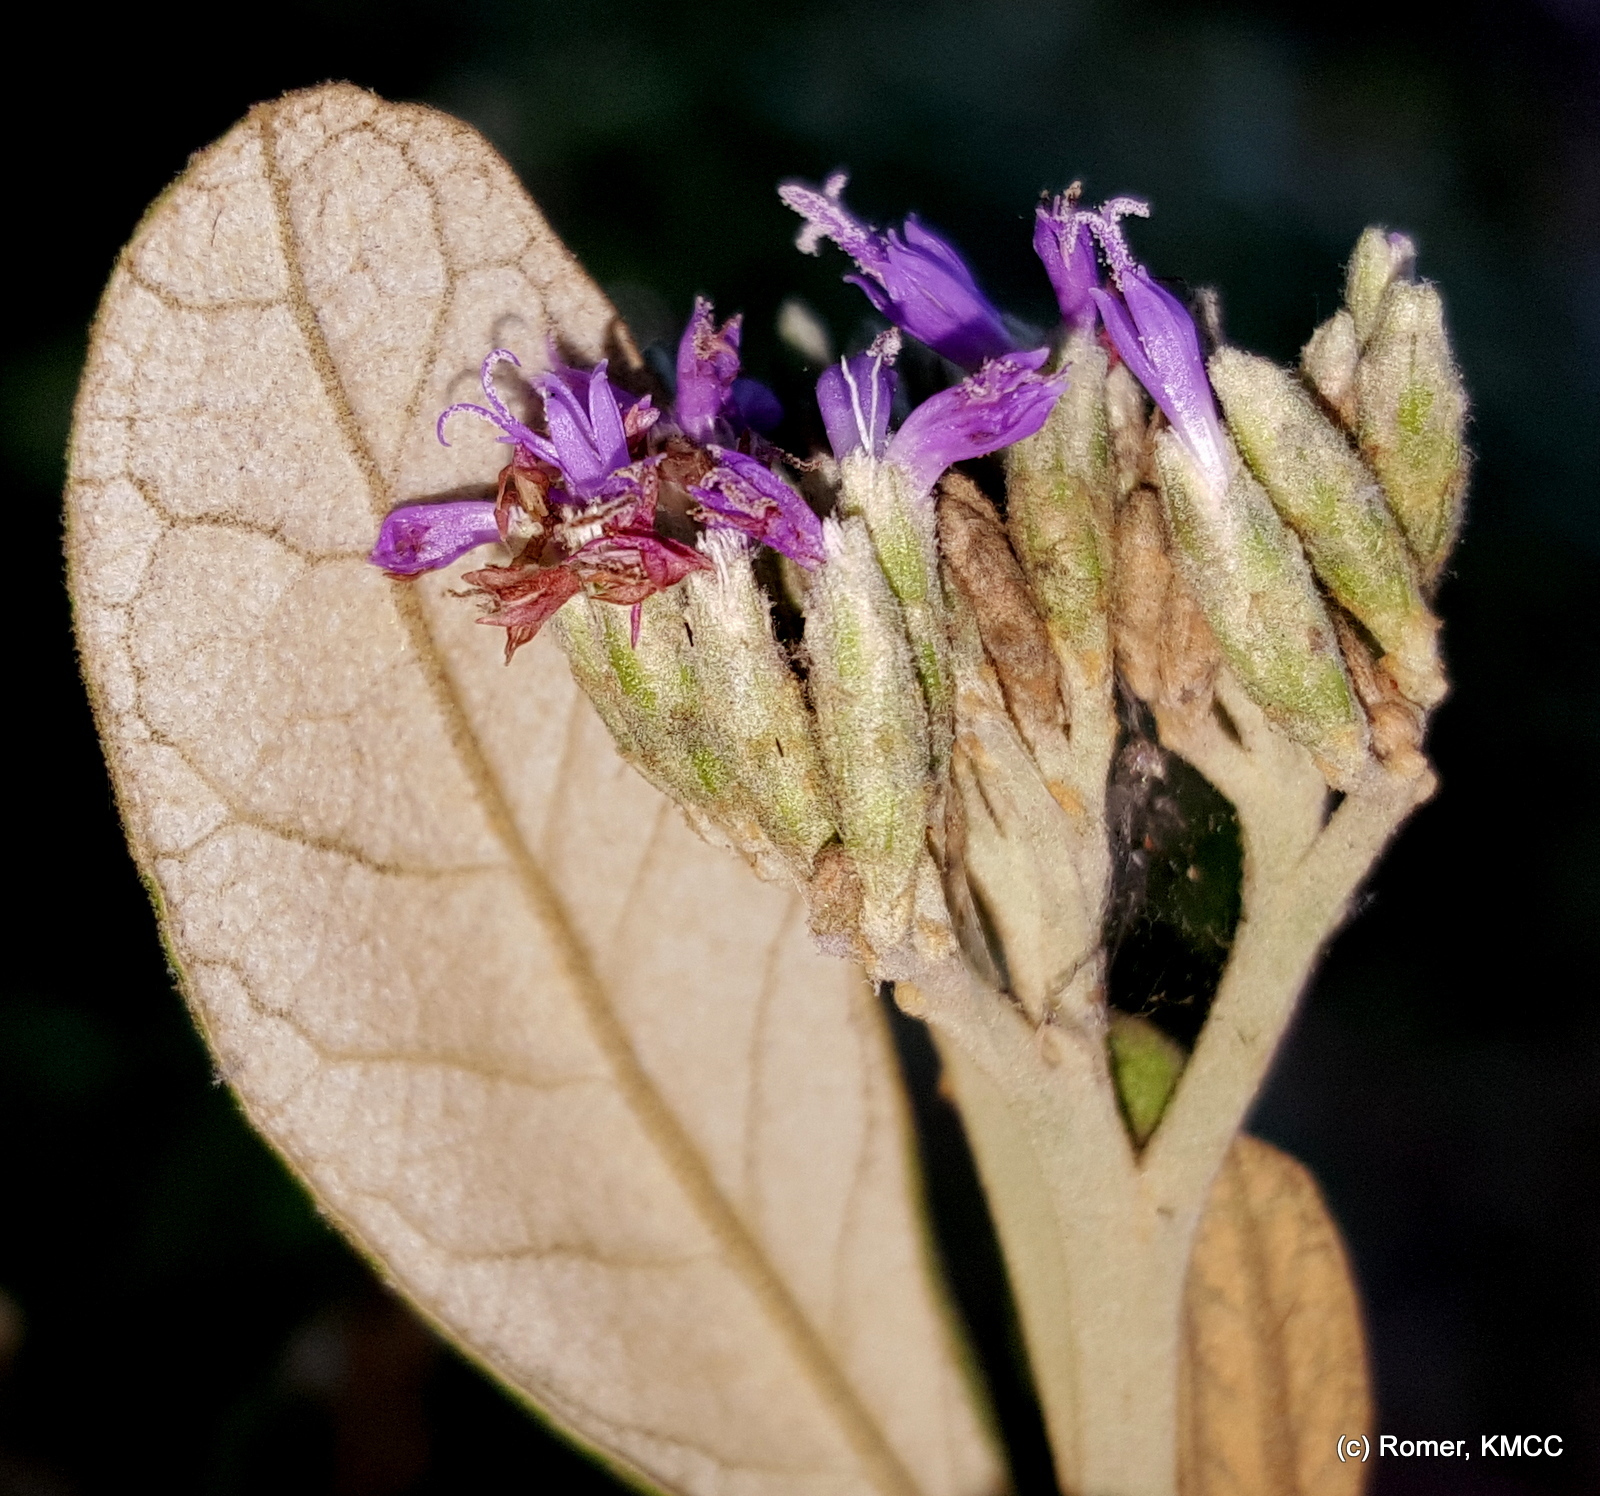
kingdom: Plantae
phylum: Tracheophyta
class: Magnoliopsida
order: Asterales
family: Asteraceae
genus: Piptocoma
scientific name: Piptocoma vernonioides
